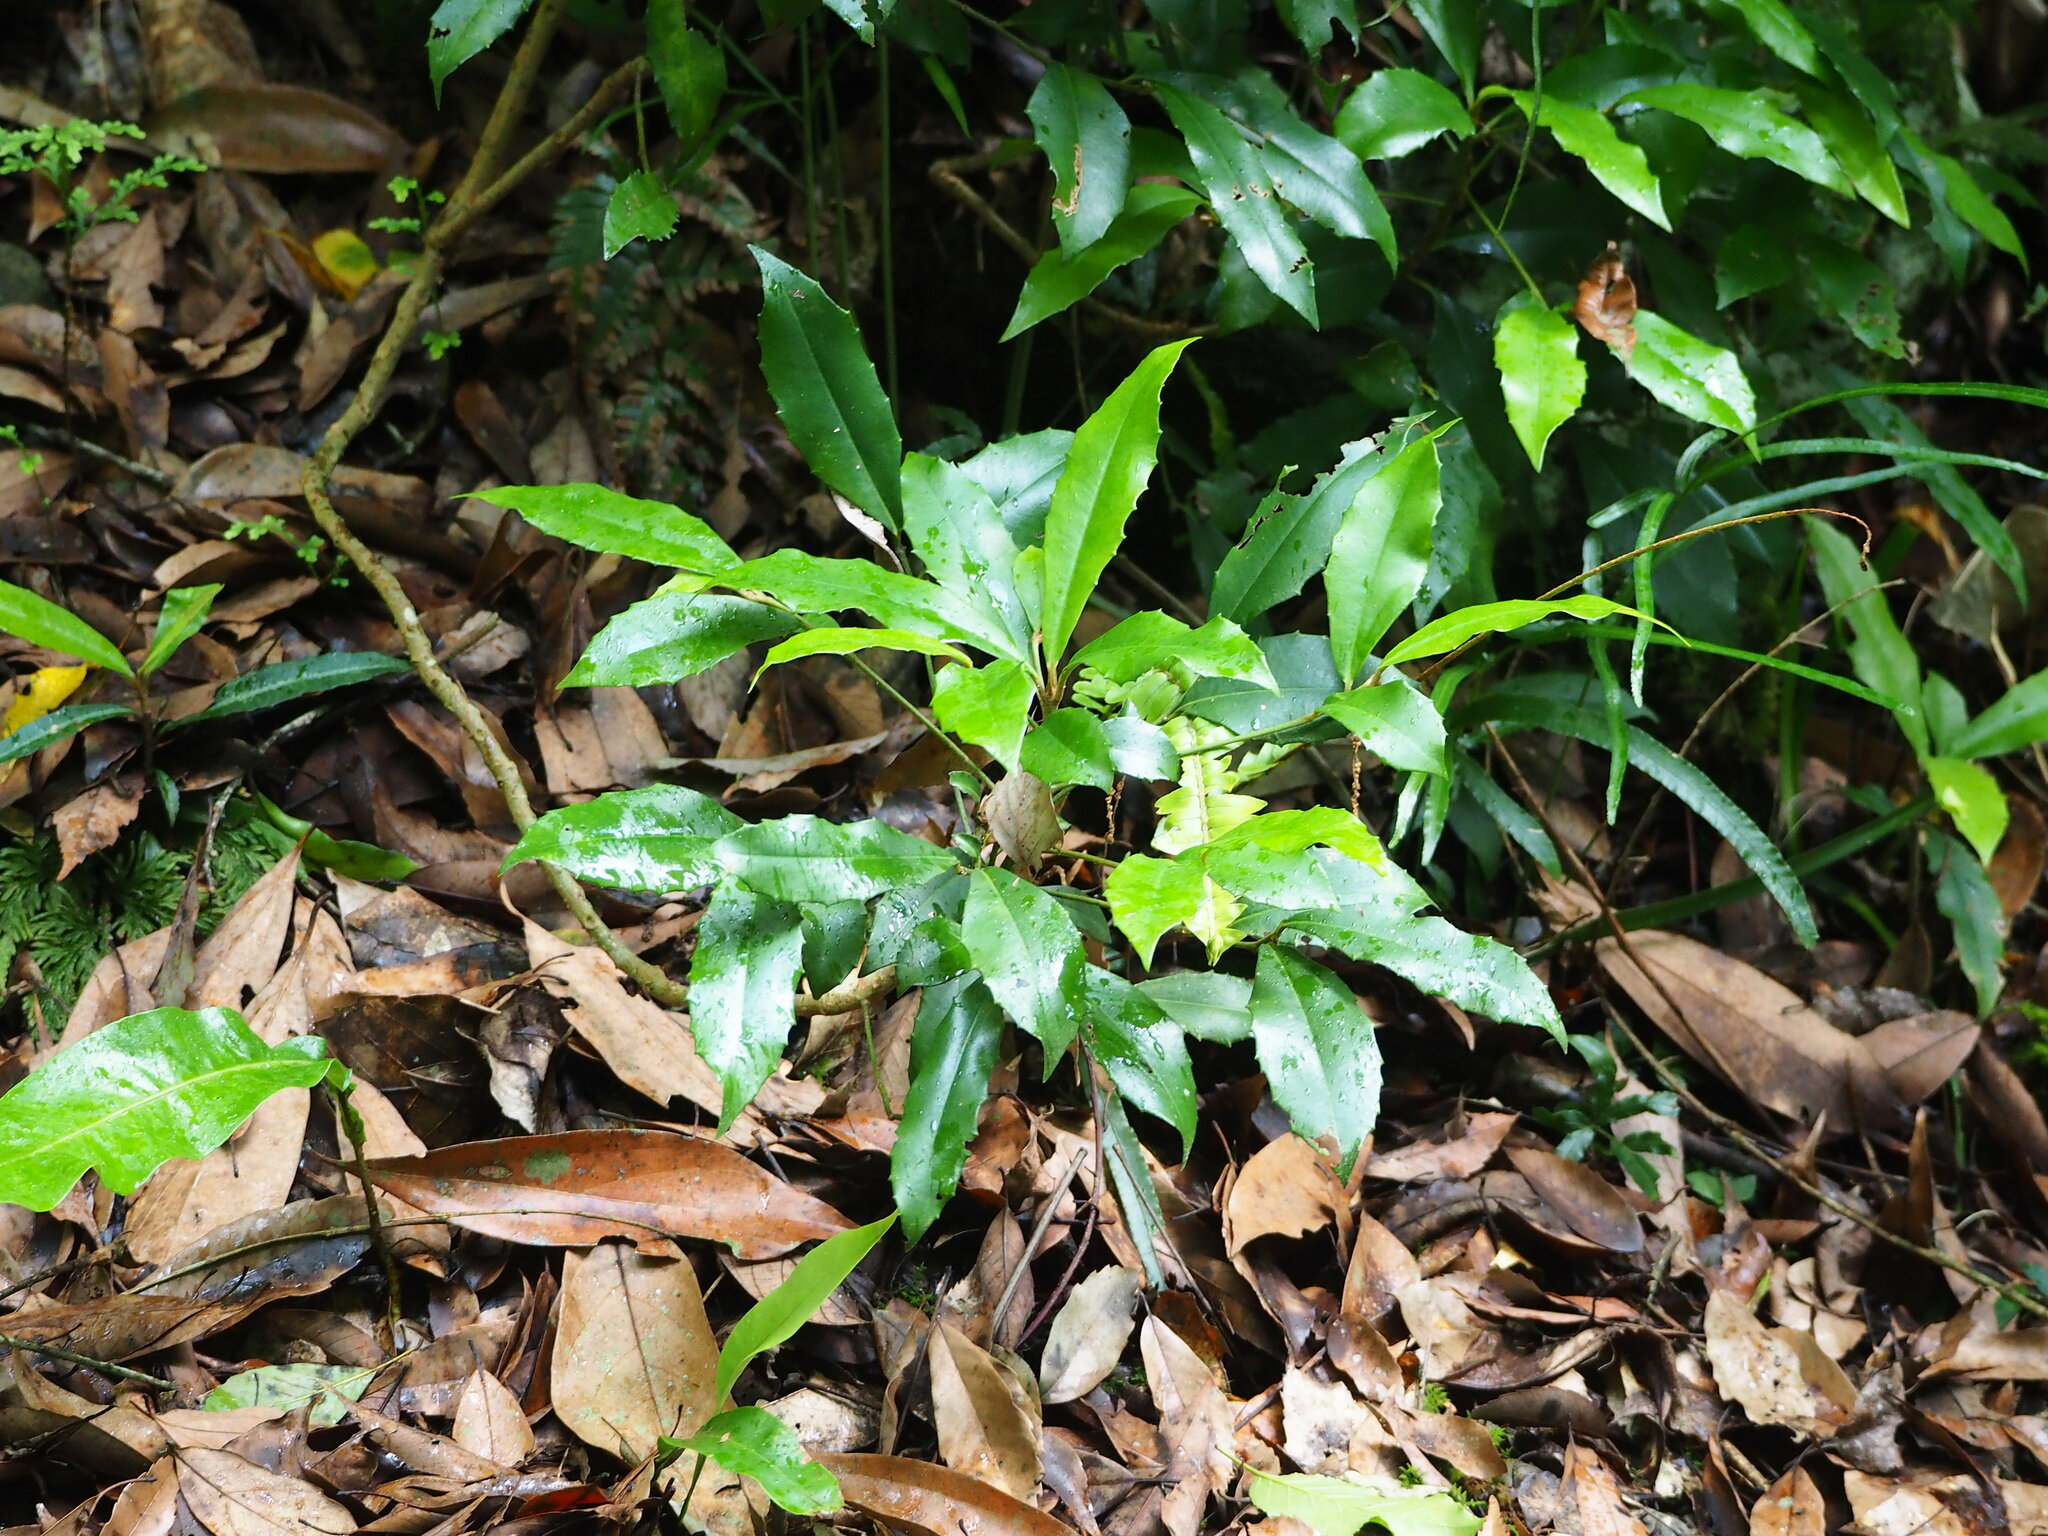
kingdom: Plantae
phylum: Tracheophyta
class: Magnoliopsida
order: Ericales
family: Primulaceae
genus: Ardisia
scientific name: Ardisia cornudentata
